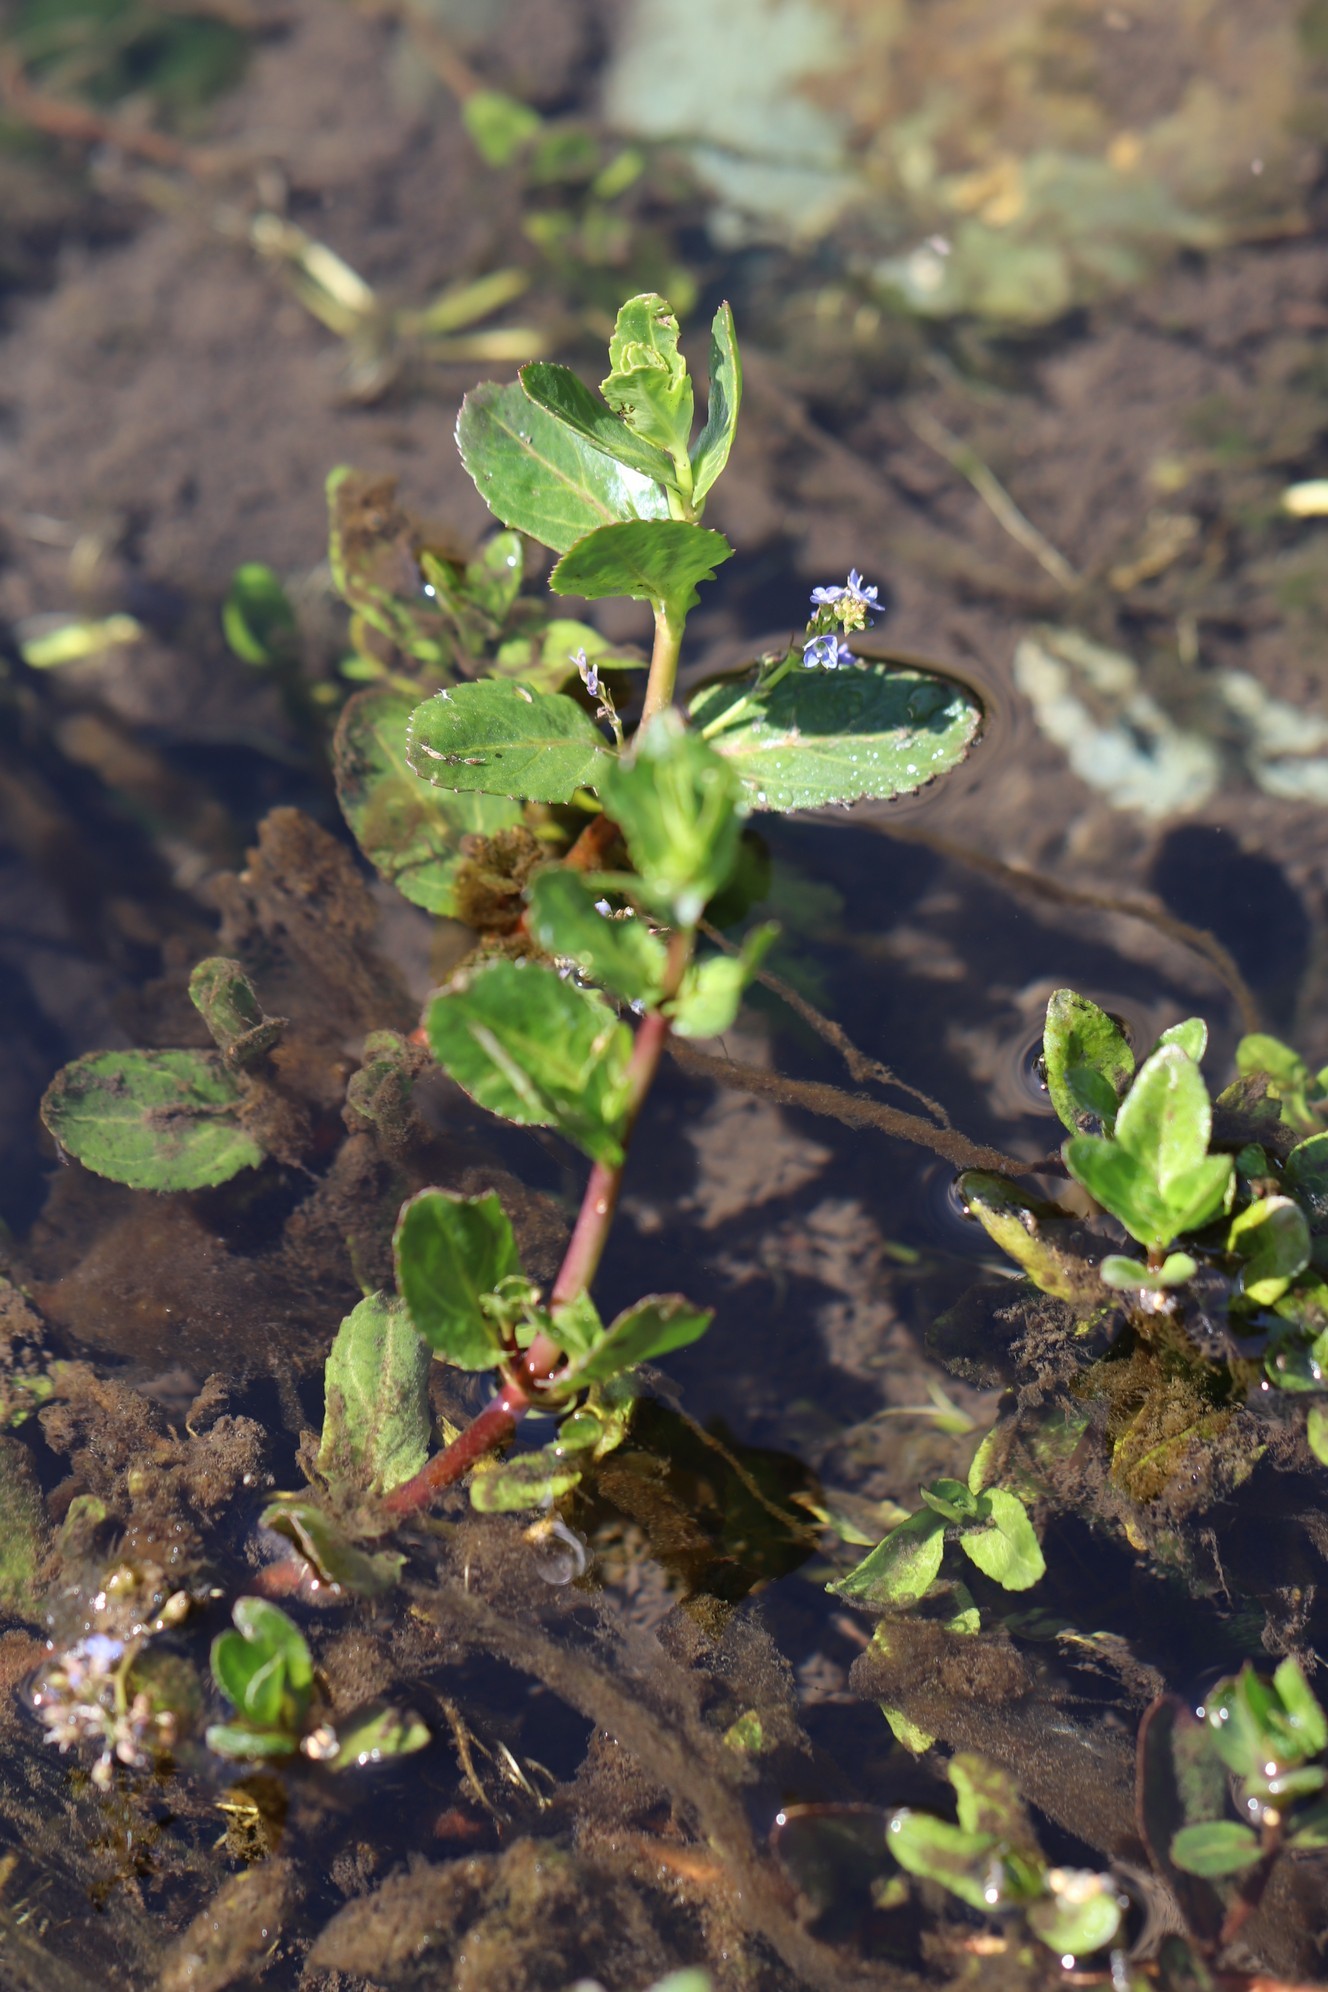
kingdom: Plantae
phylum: Tracheophyta
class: Magnoliopsida
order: Lamiales
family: Plantaginaceae
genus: Veronica
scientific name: Veronica anagallis-aquatica
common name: Water speedwell
